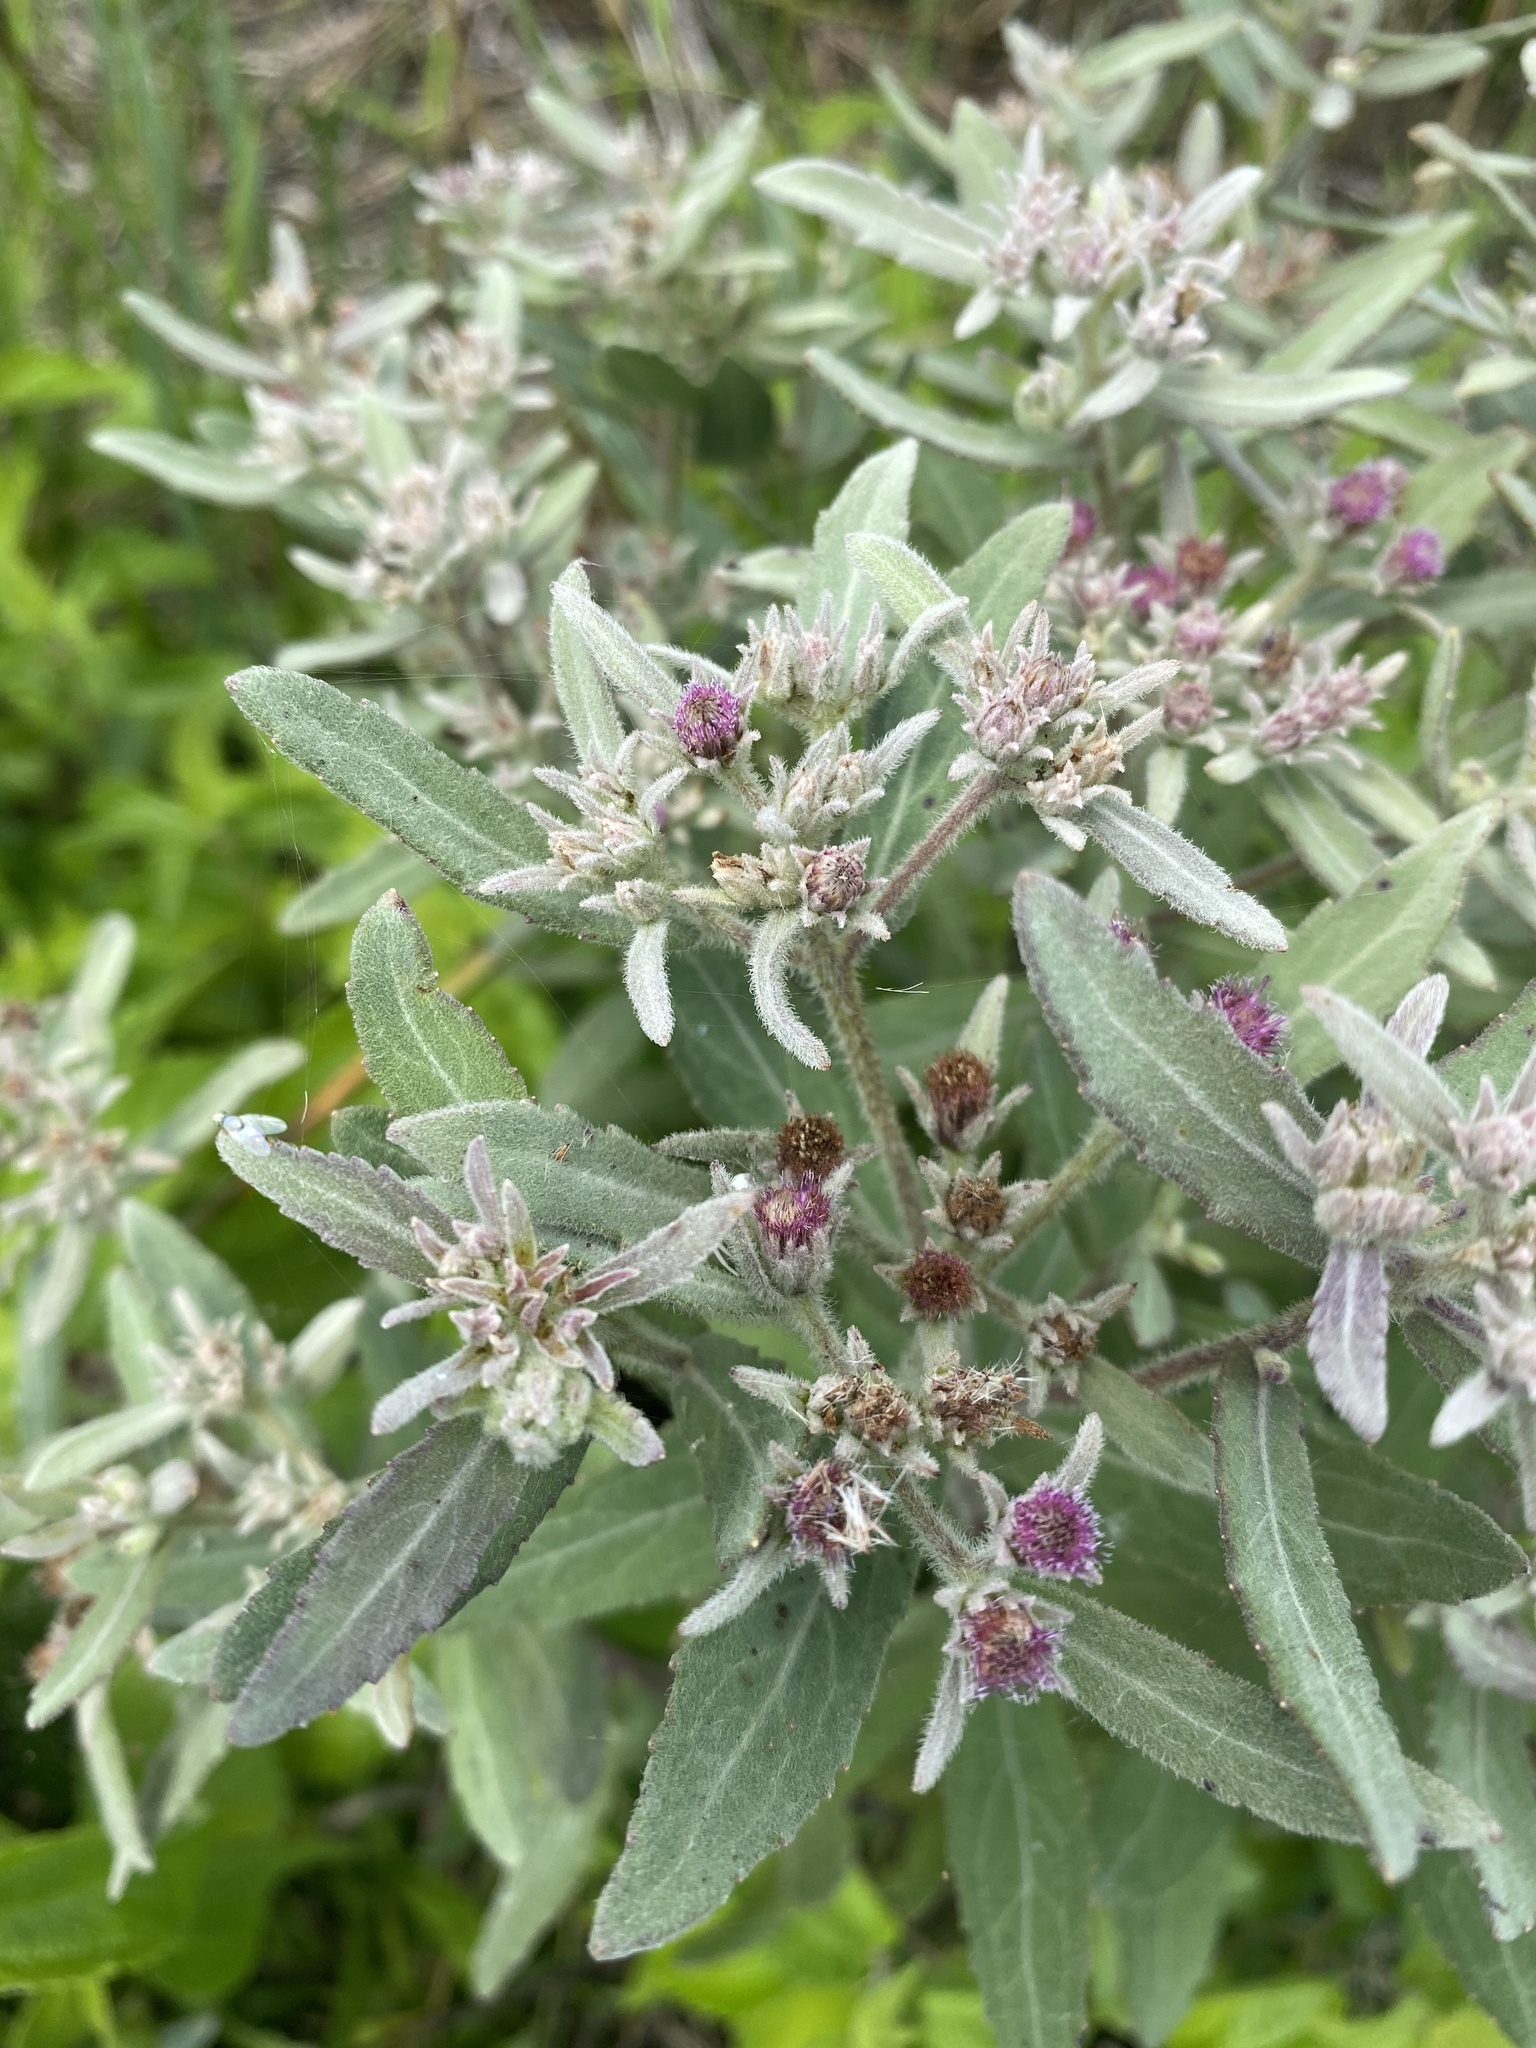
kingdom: Plantae
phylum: Tracheophyta
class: Magnoliopsida
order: Asterales
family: Asteraceae
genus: Pluchea
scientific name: Pluchea baccharis
